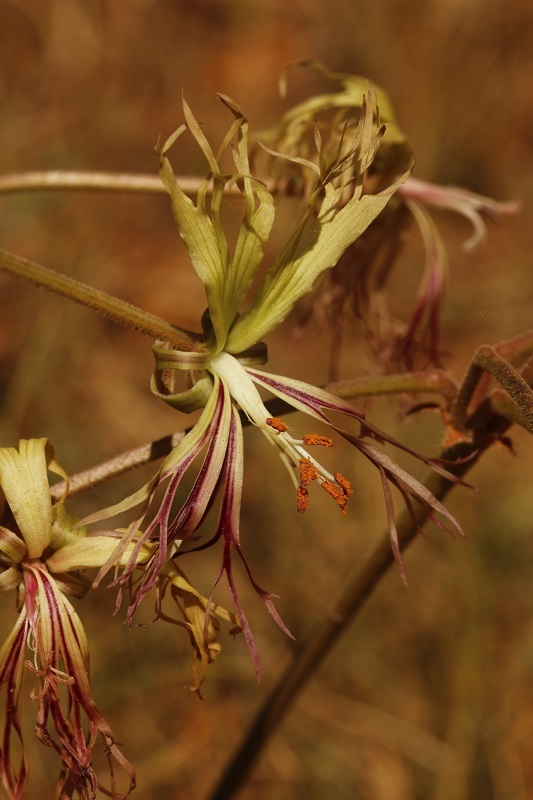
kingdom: Plantae
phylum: Tracheophyta
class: Magnoliopsida
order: Geraniales
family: Geraniaceae
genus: Pelargonium
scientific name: Pelargonium schizopetalum
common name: Divided-petal pelargonium
